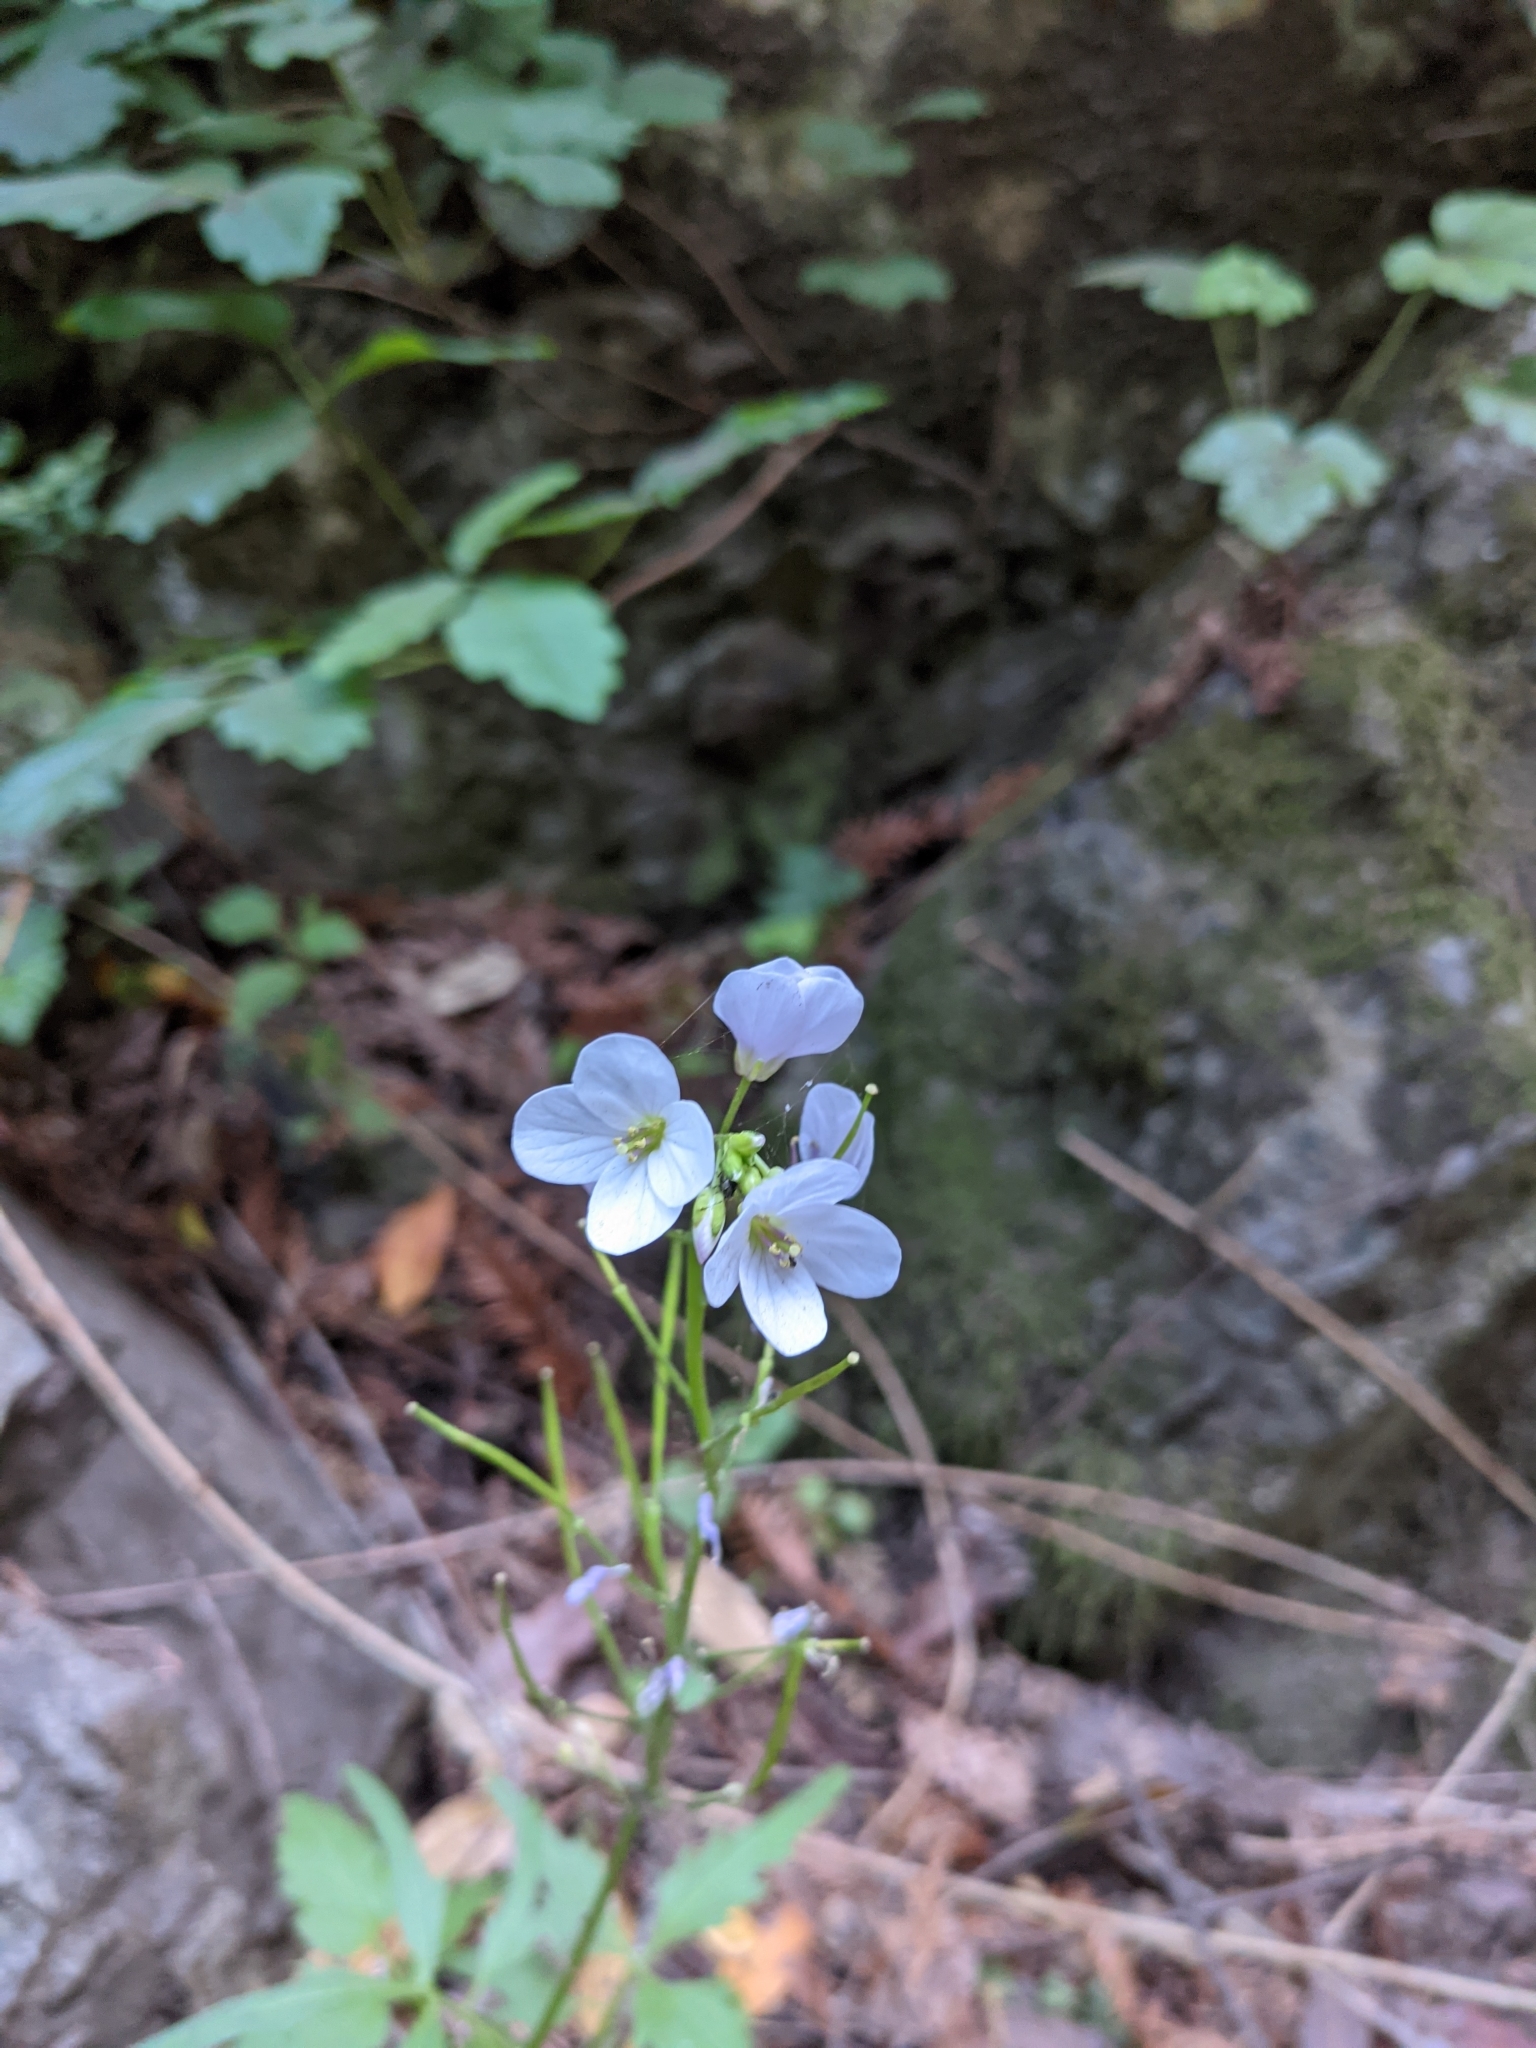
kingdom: Plantae
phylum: Tracheophyta
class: Magnoliopsida
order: Brassicales
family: Brassicaceae
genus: Cardamine
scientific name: Cardamine californica
